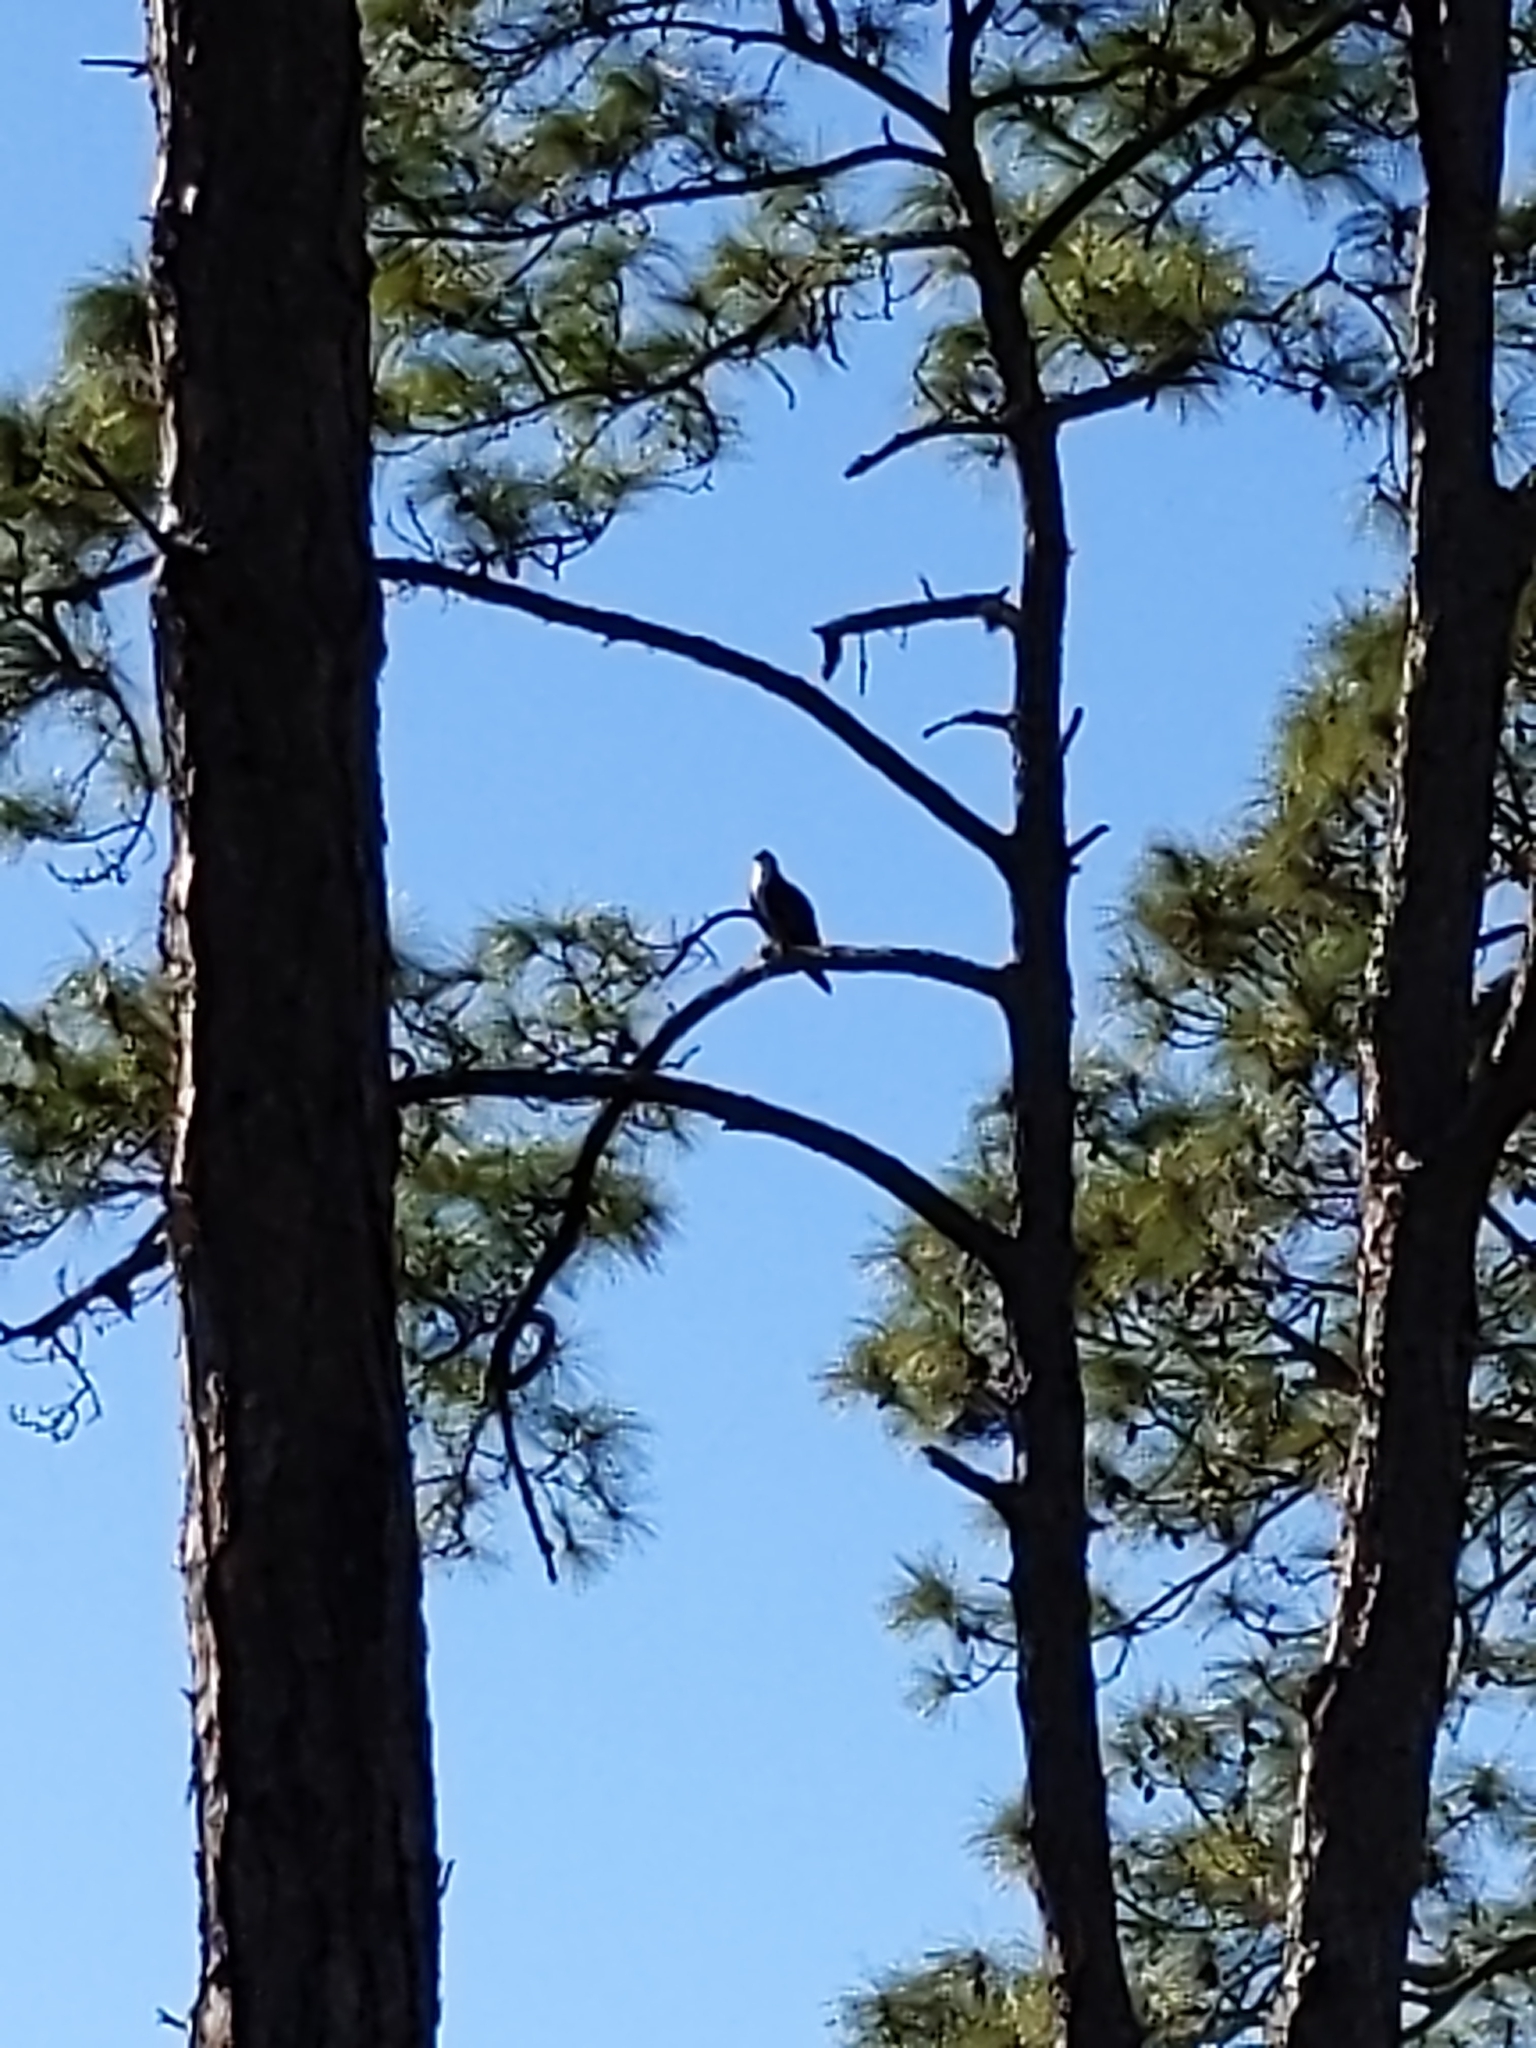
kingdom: Animalia
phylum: Chordata
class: Aves
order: Accipitriformes
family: Pandionidae
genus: Pandion
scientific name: Pandion haliaetus
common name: Osprey
